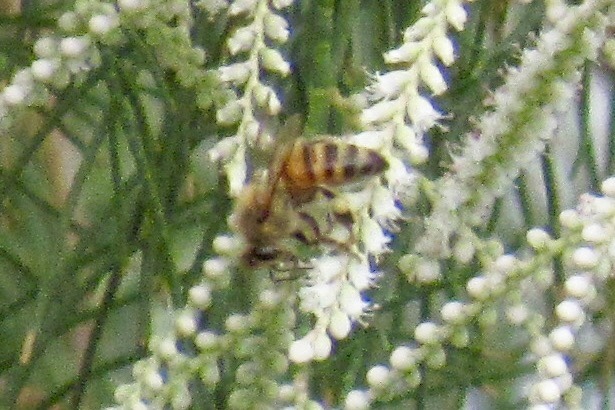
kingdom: Animalia
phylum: Arthropoda
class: Insecta
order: Hymenoptera
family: Apidae
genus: Apis
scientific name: Apis mellifera
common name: Honey bee
